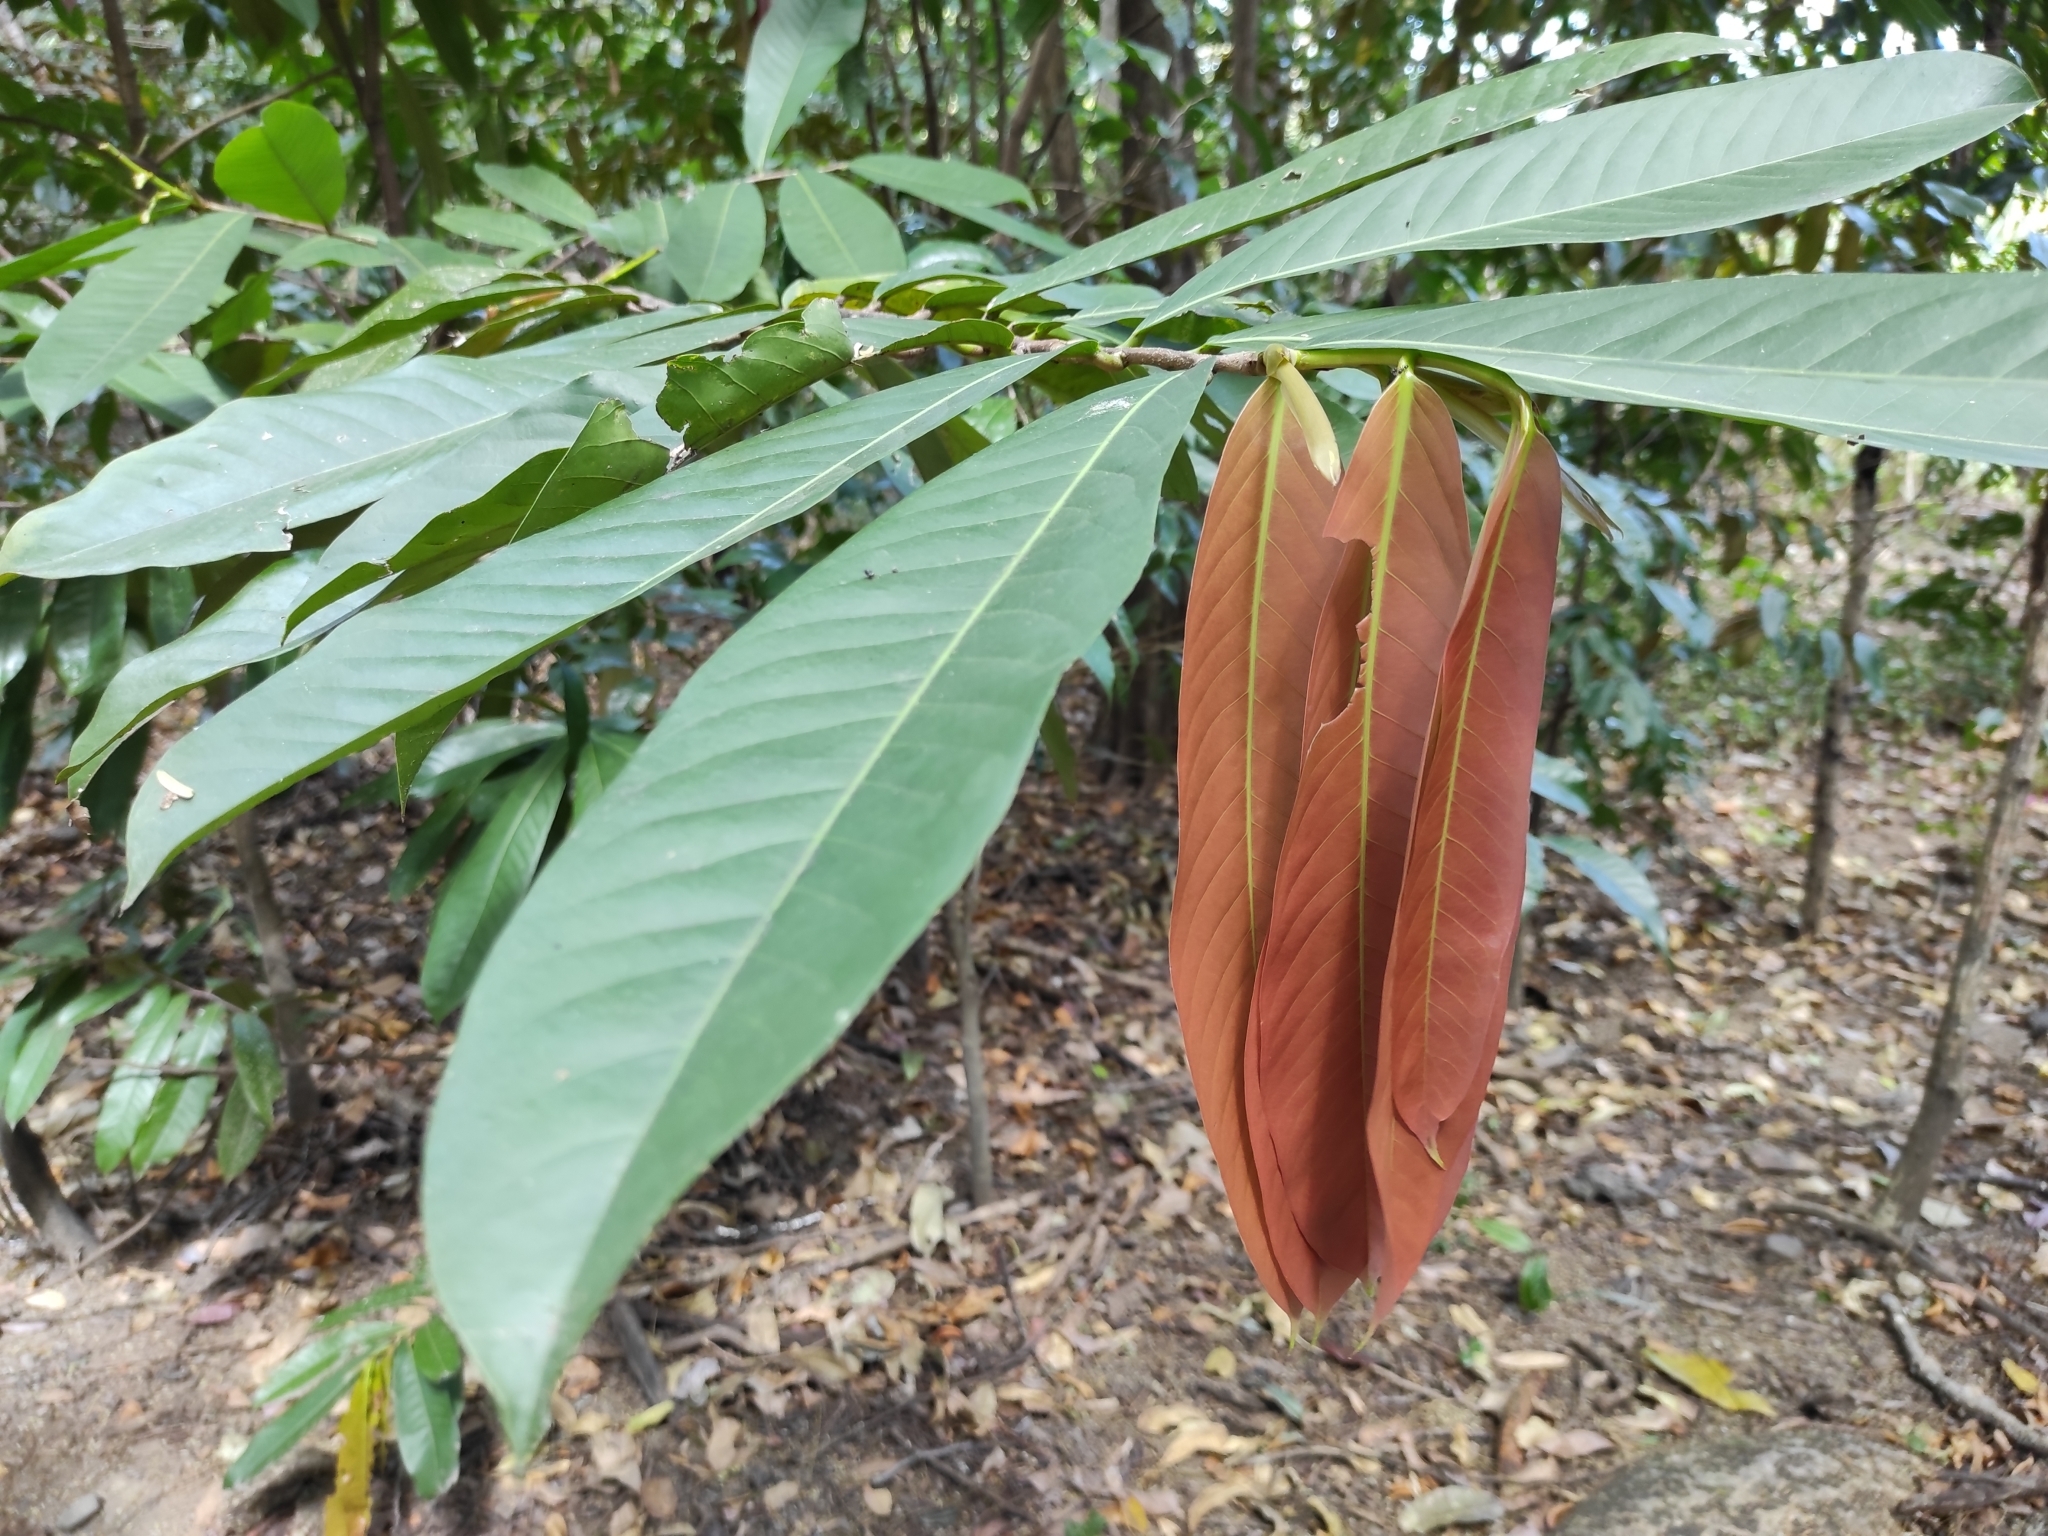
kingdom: Plantae
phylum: Tracheophyta
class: Magnoliopsida
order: Malpighiales
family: Chrysobalanaceae
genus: Moquilea
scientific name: Moquilea platypus
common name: Sansapote
